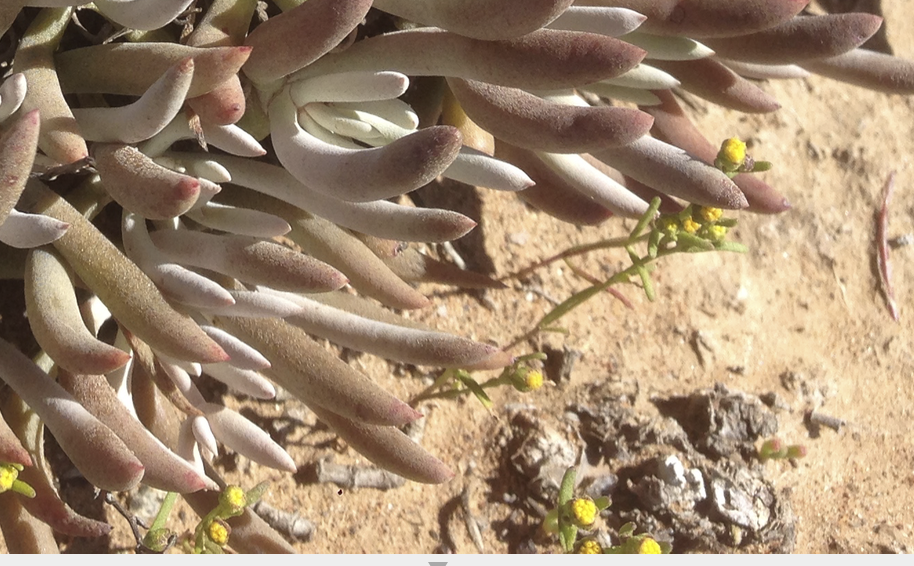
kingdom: Plantae
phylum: Tracheophyta
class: Magnoliopsida
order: Asterales
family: Asteraceae
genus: Amblyopappus
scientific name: Amblyopappus pusillus
